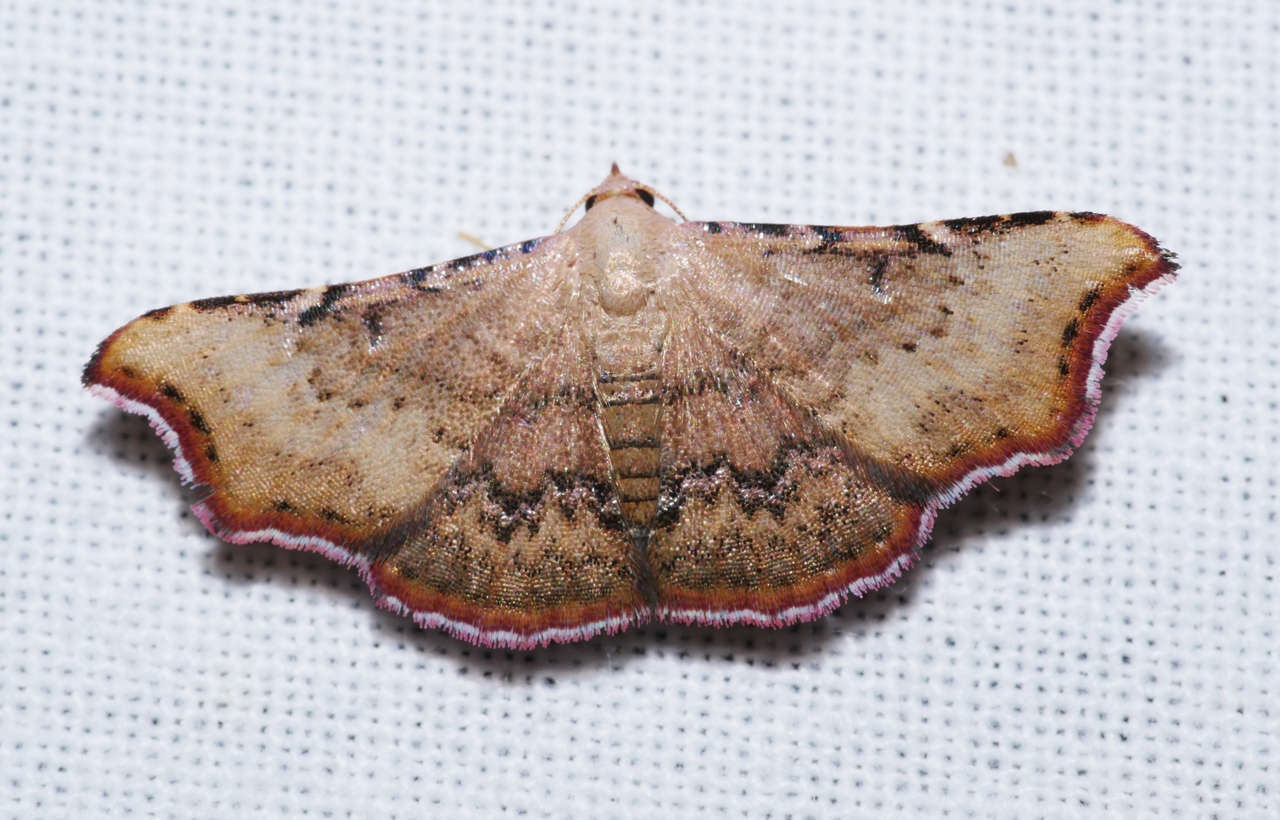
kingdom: Animalia
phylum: Arthropoda
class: Insecta
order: Lepidoptera
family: Erebidae
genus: Corgatha
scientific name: Corgatha dipyra
